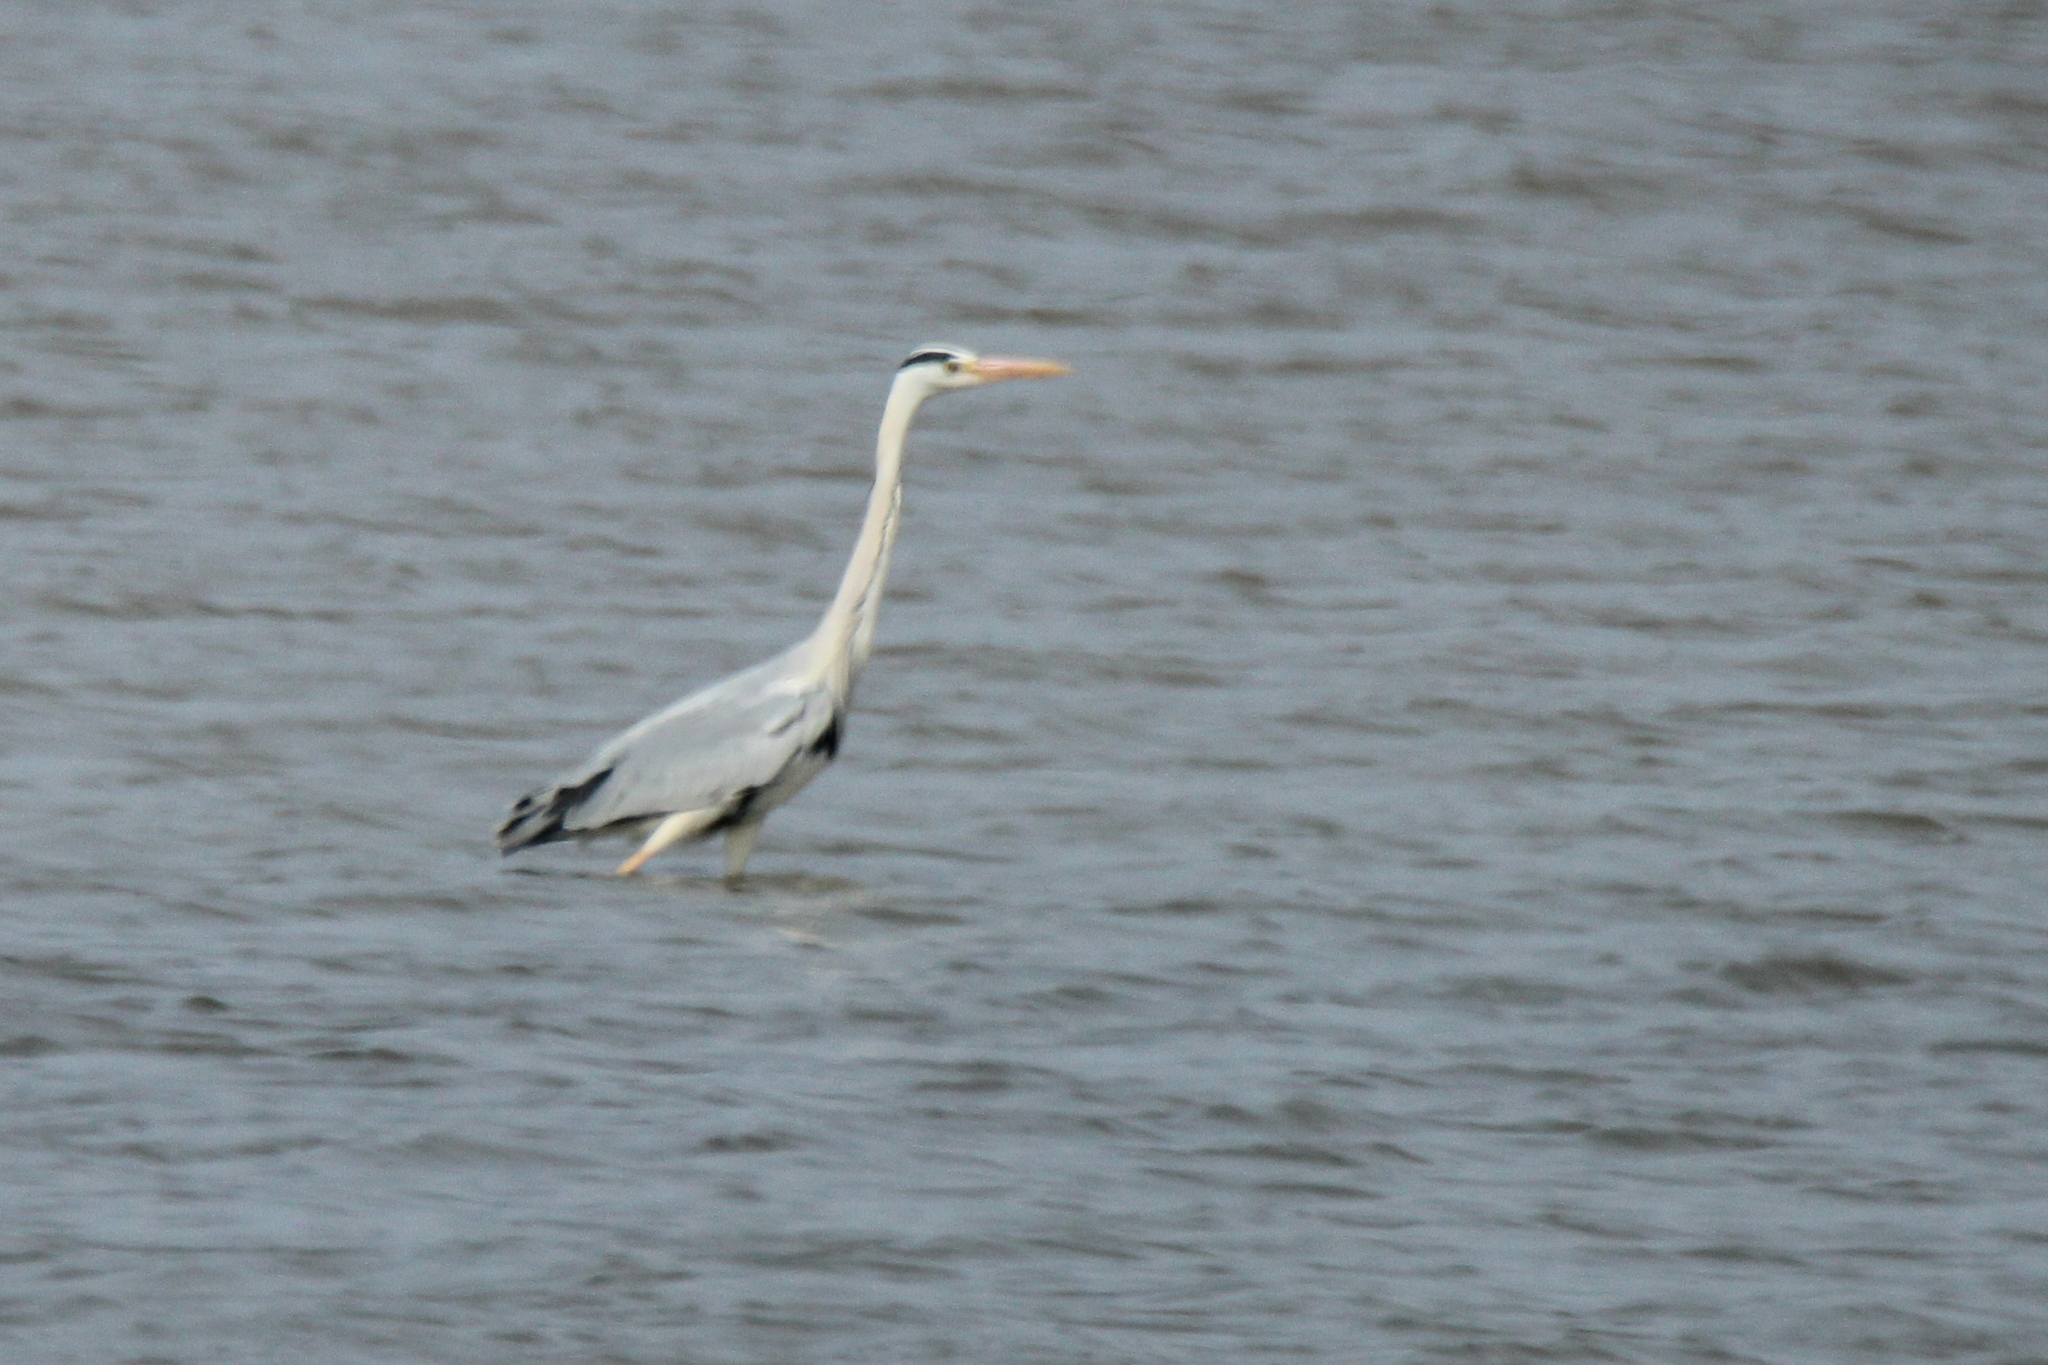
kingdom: Animalia
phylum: Chordata
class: Aves
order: Pelecaniformes
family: Ardeidae
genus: Ardea
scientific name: Ardea cinerea
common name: Grey heron
